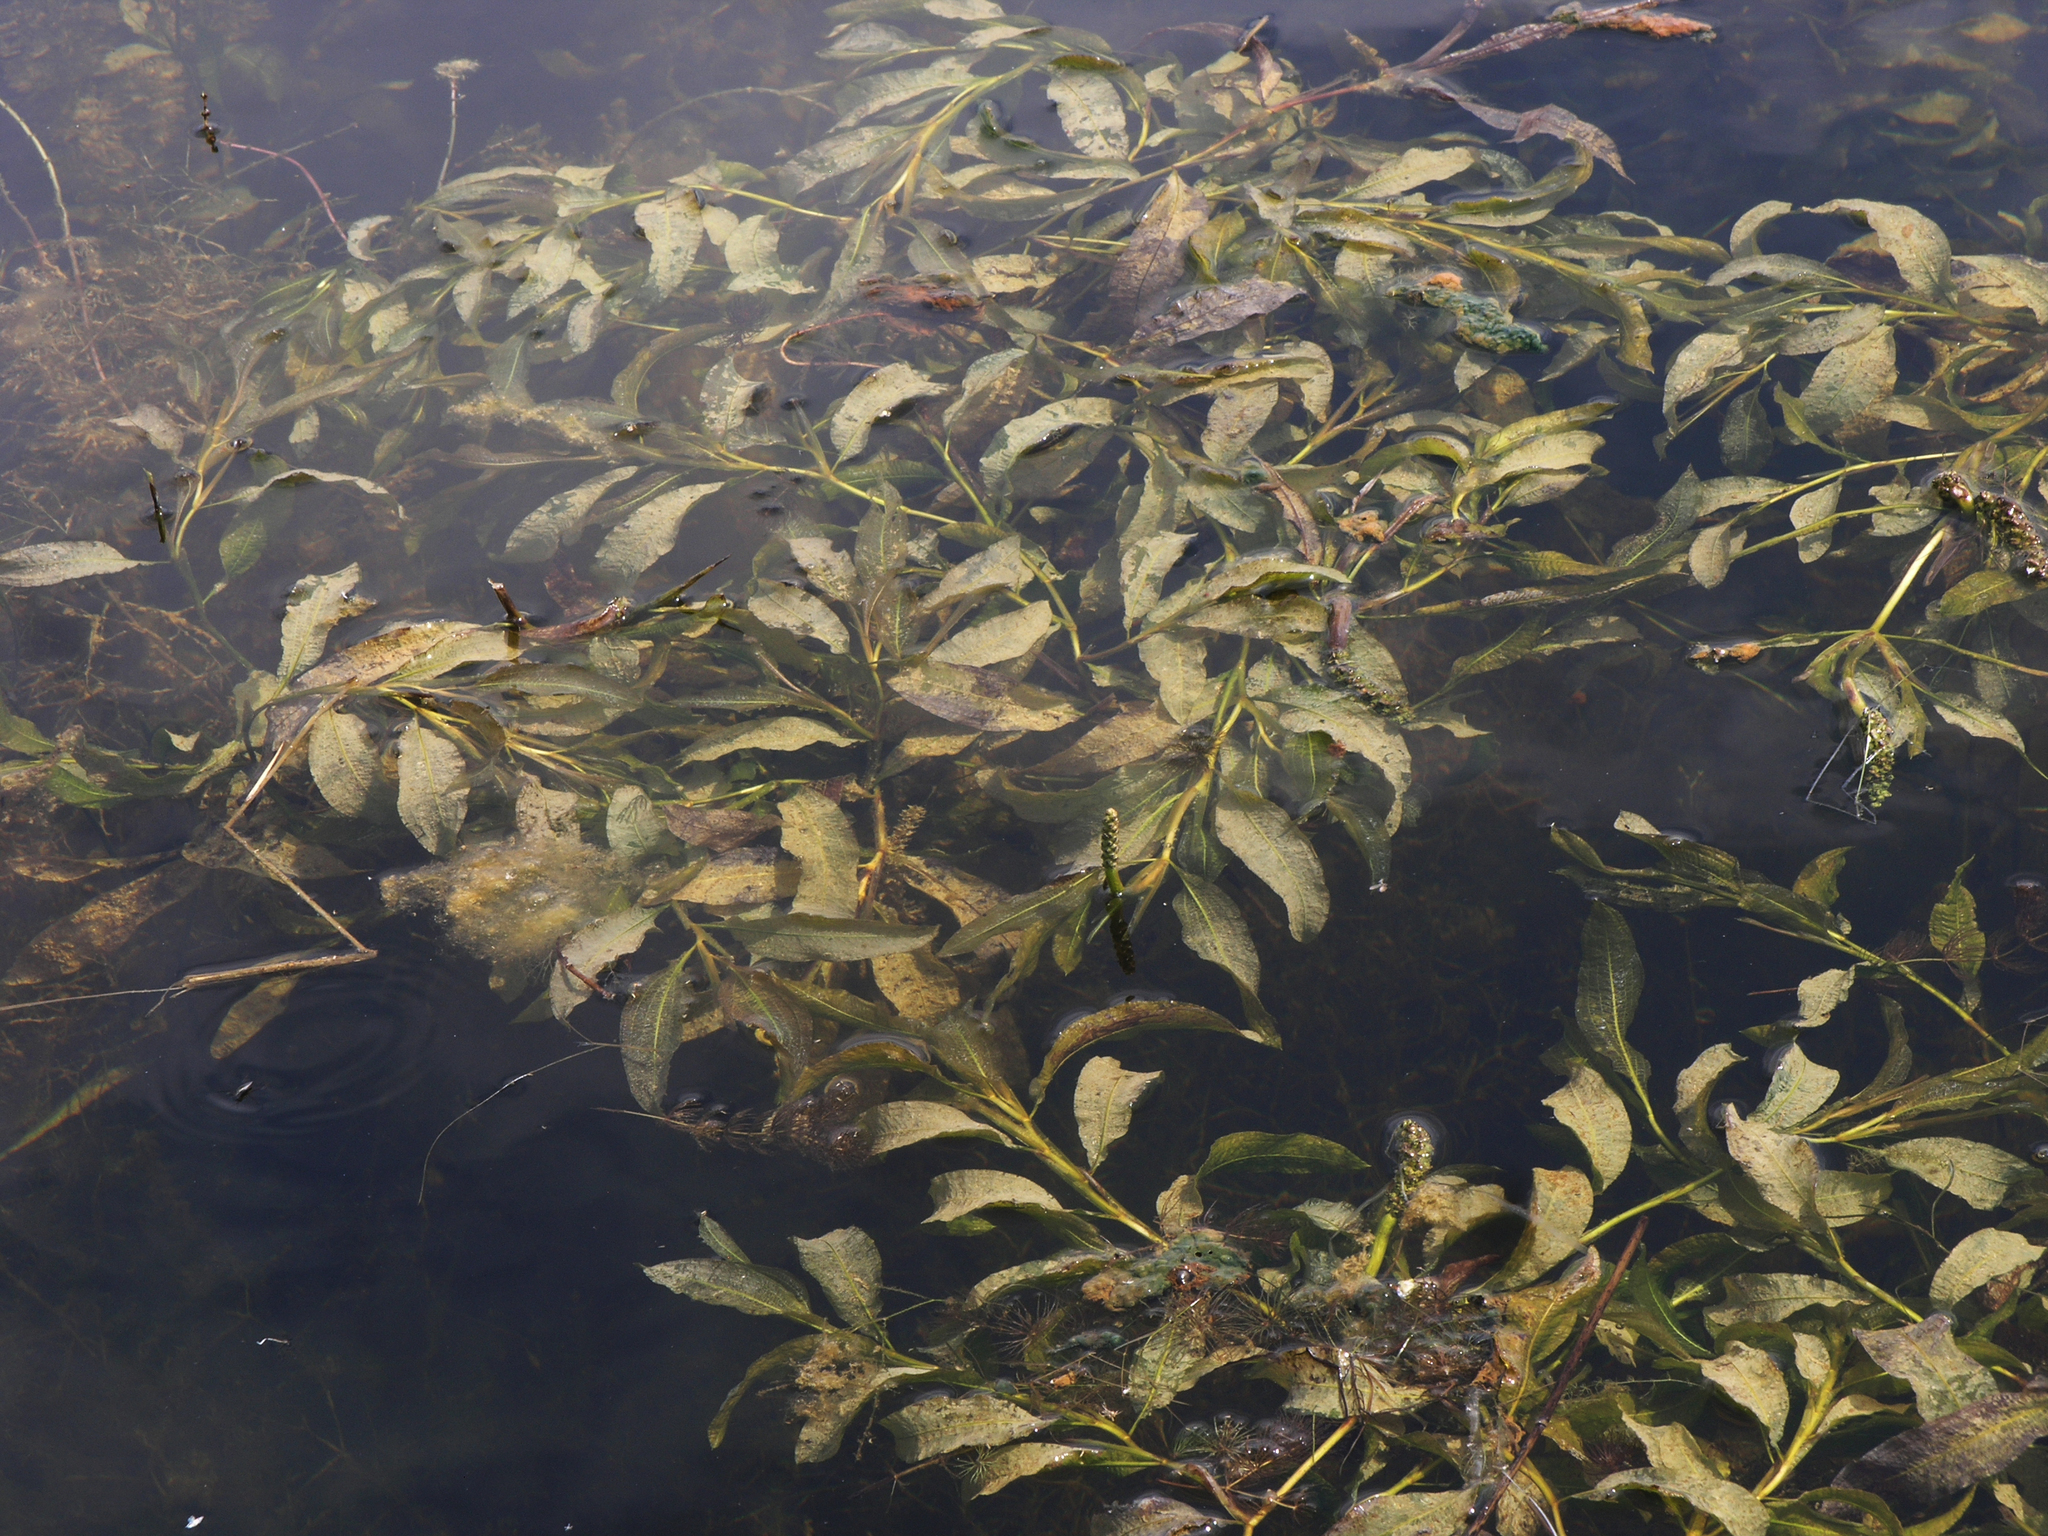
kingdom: Plantae
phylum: Tracheophyta
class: Liliopsida
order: Alismatales
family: Potamogetonaceae
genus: Potamogeton
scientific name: Potamogeton lucens
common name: Shining pondweed
